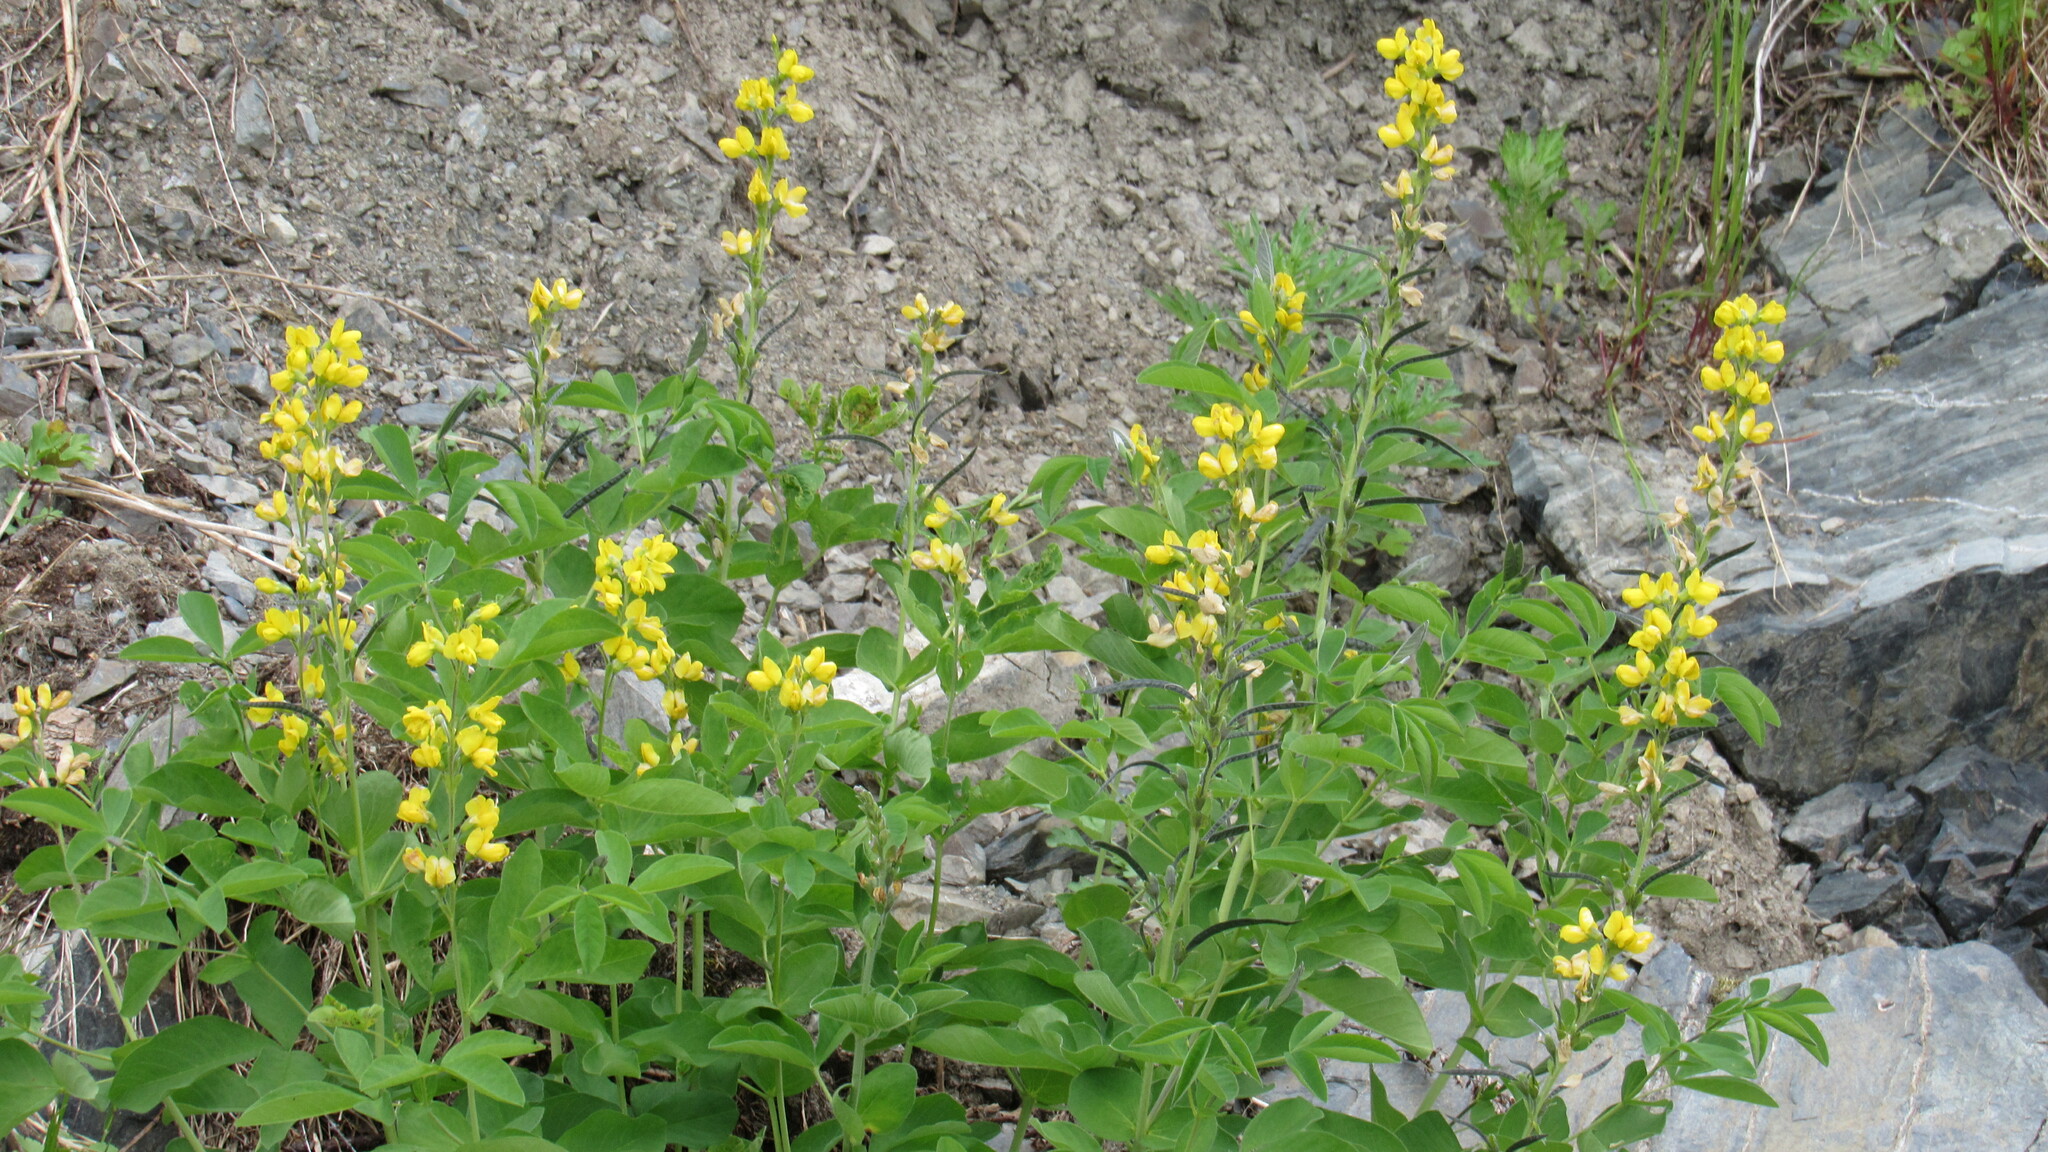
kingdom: Plantae
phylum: Tracheophyta
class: Magnoliopsida
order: Fabales
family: Fabaceae
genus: Thermopsis
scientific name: Thermopsis lanceolata
